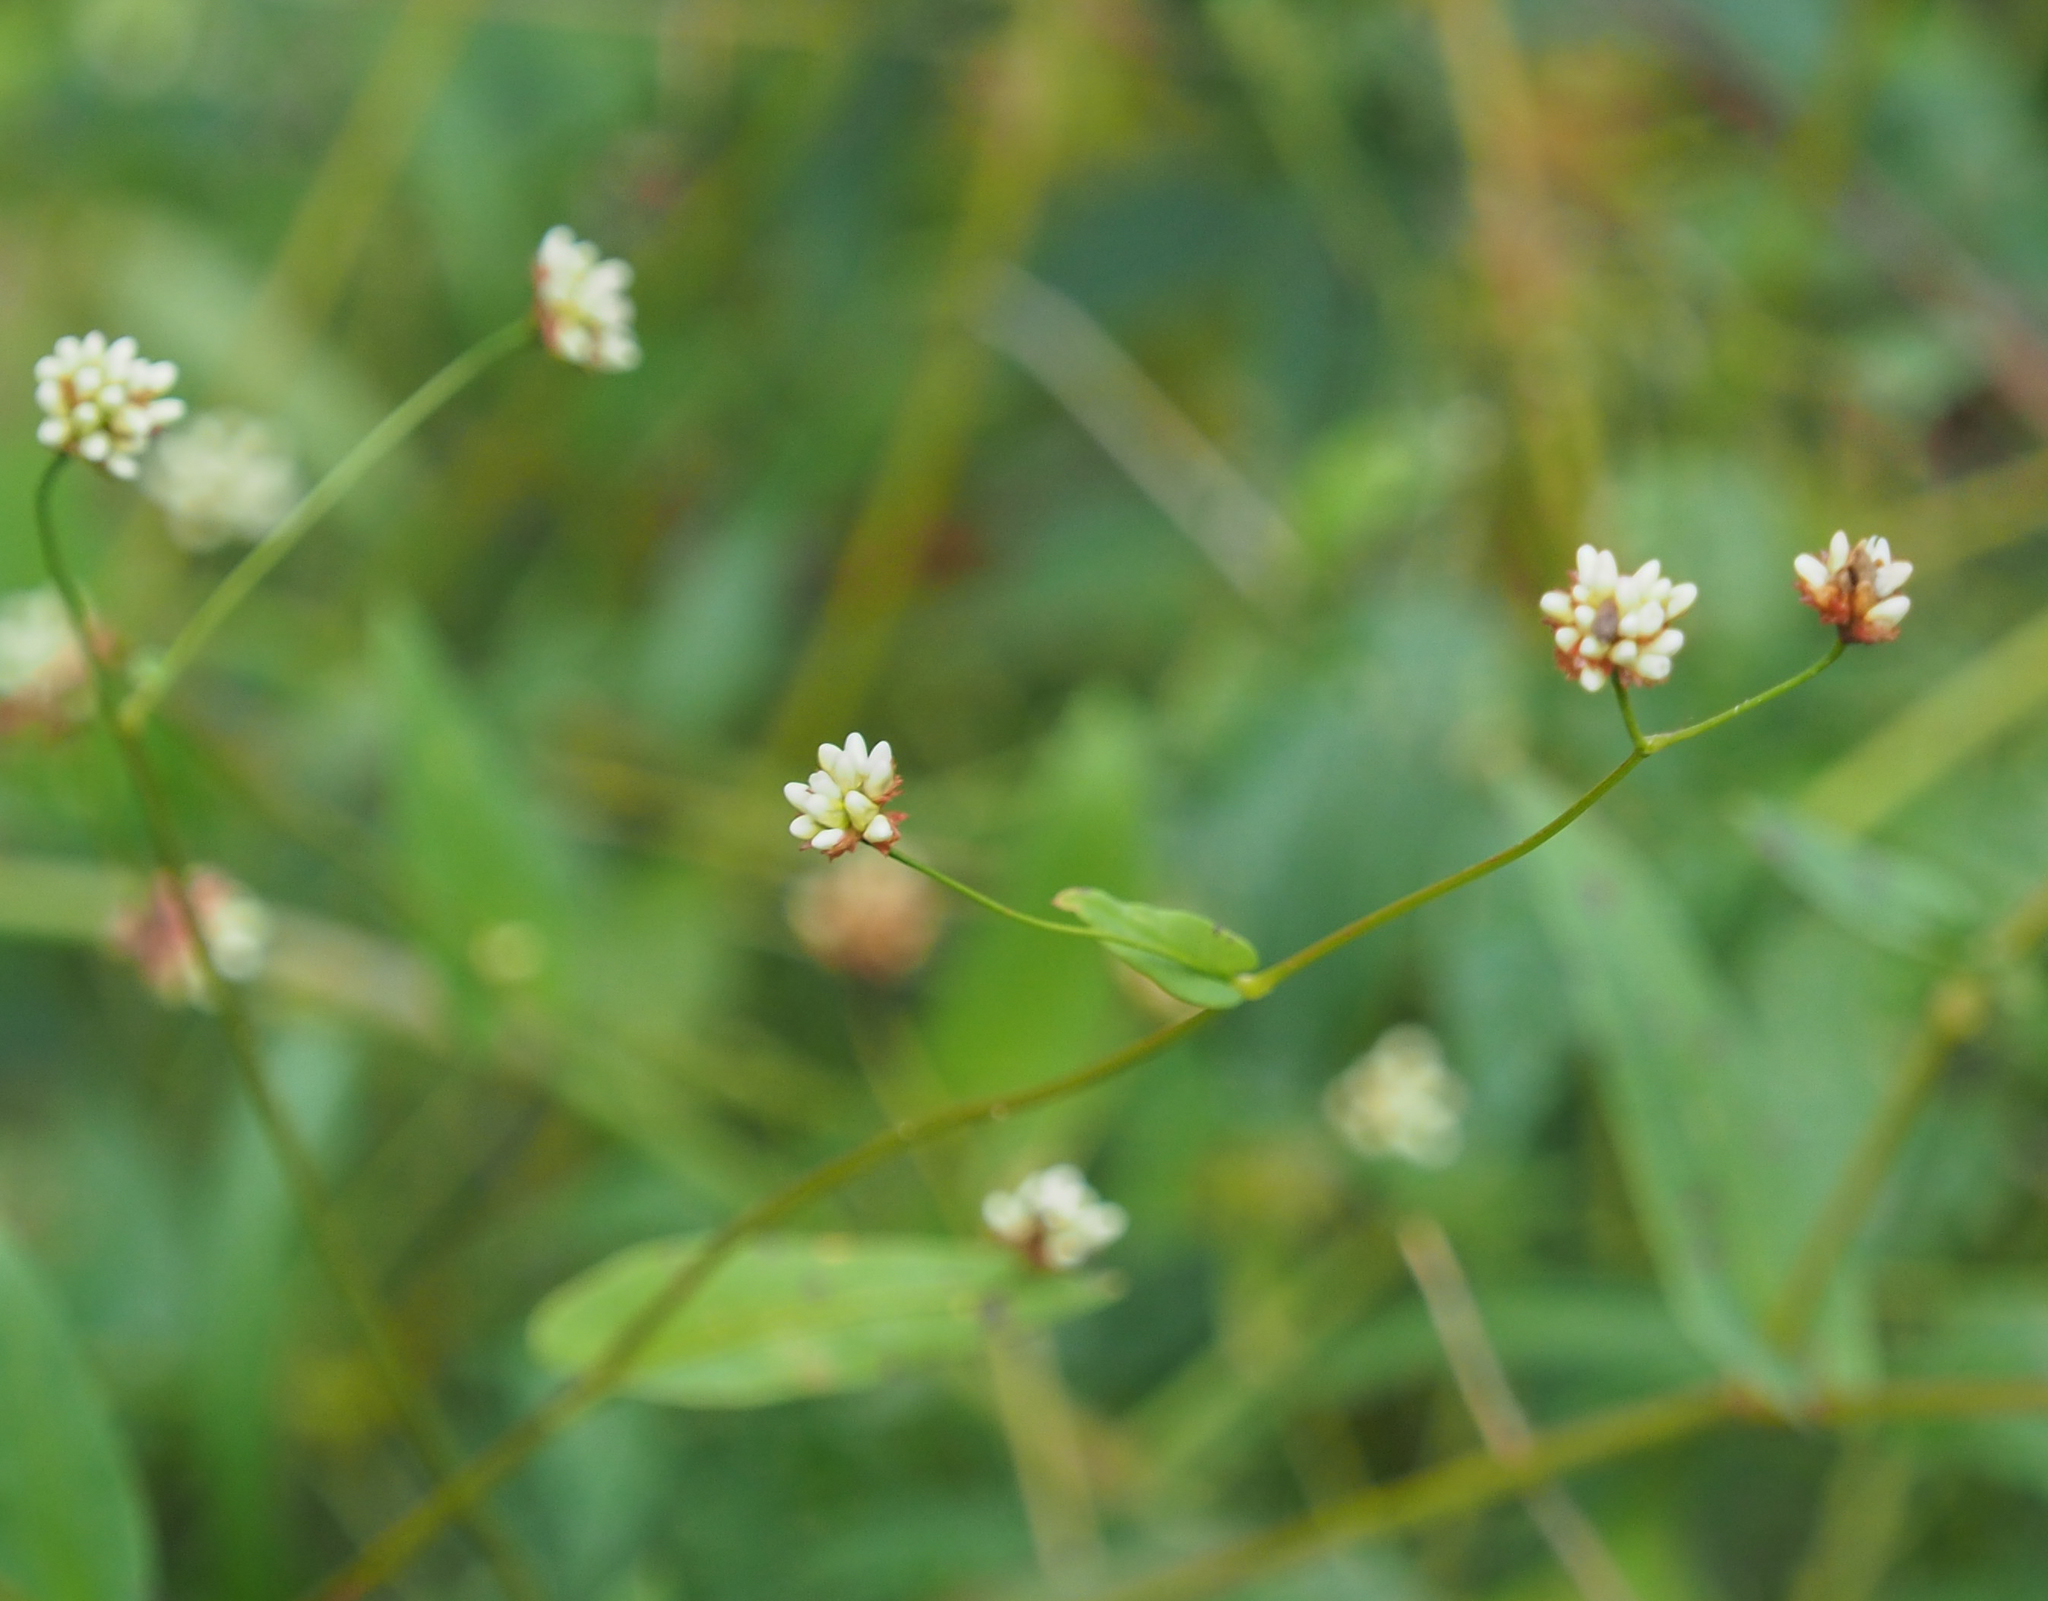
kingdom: Plantae
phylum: Tracheophyta
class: Magnoliopsida
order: Caryophyllales
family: Polygonaceae
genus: Persicaria
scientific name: Persicaria sagittata
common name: American tearthumb
